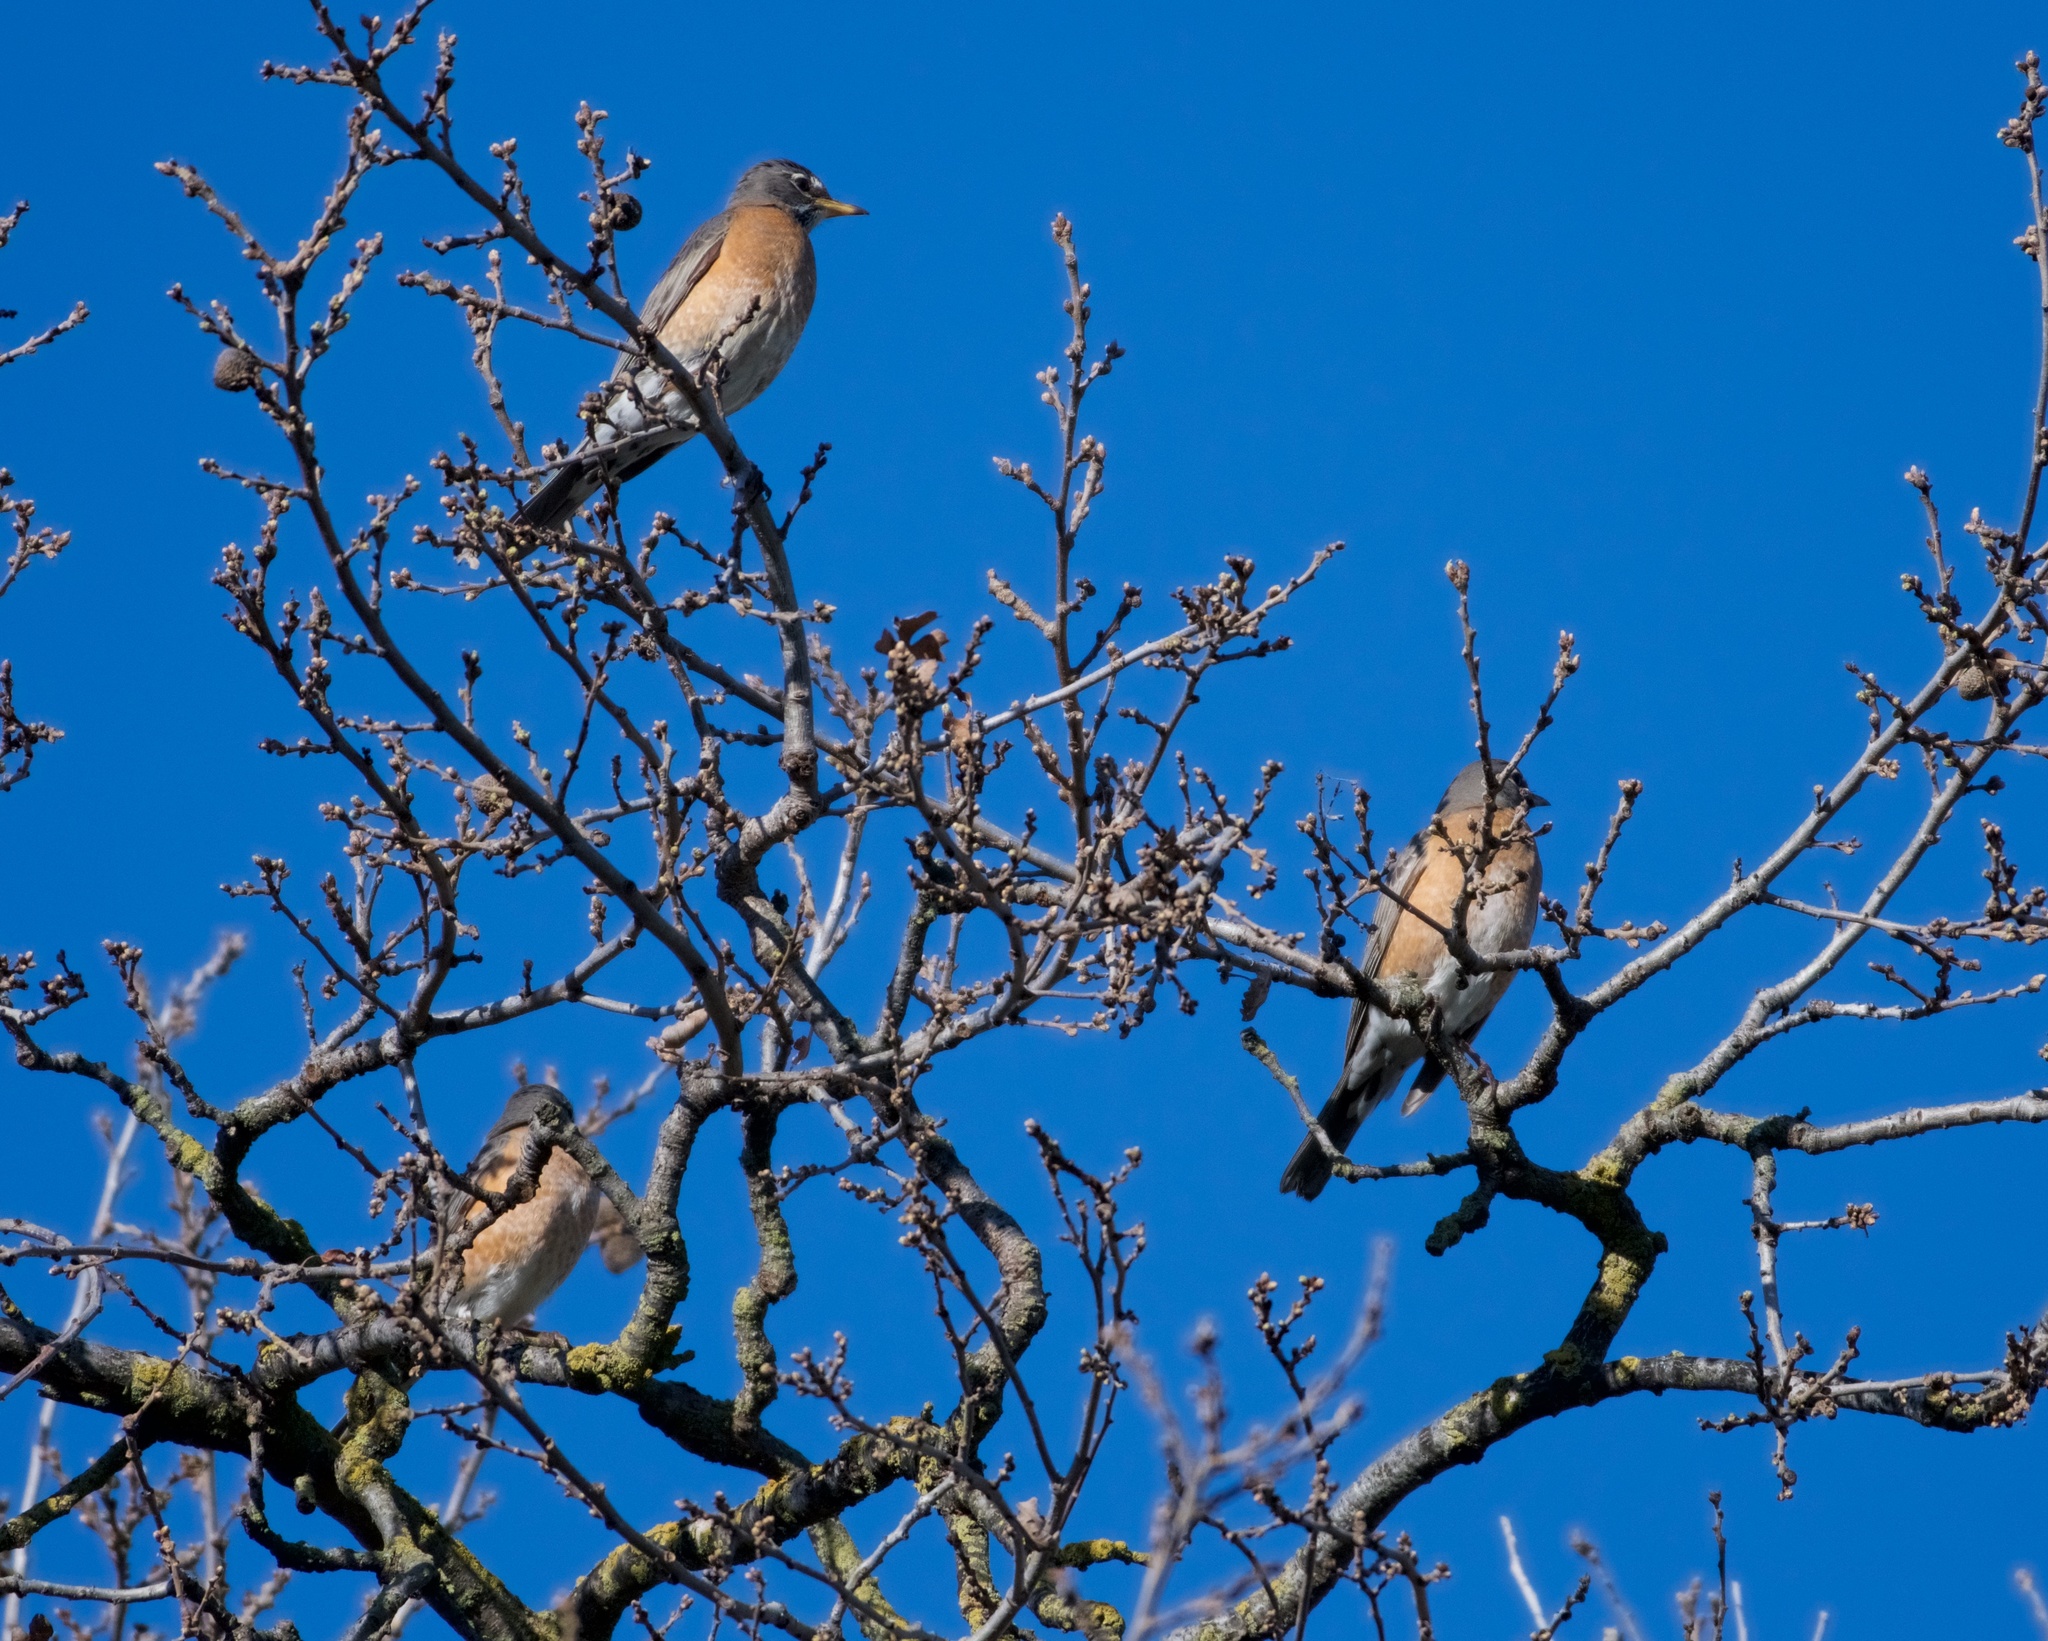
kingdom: Animalia
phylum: Chordata
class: Aves
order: Passeriformes
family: Turdidae
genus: Turdus
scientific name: Turdus migratorius
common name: American robin
